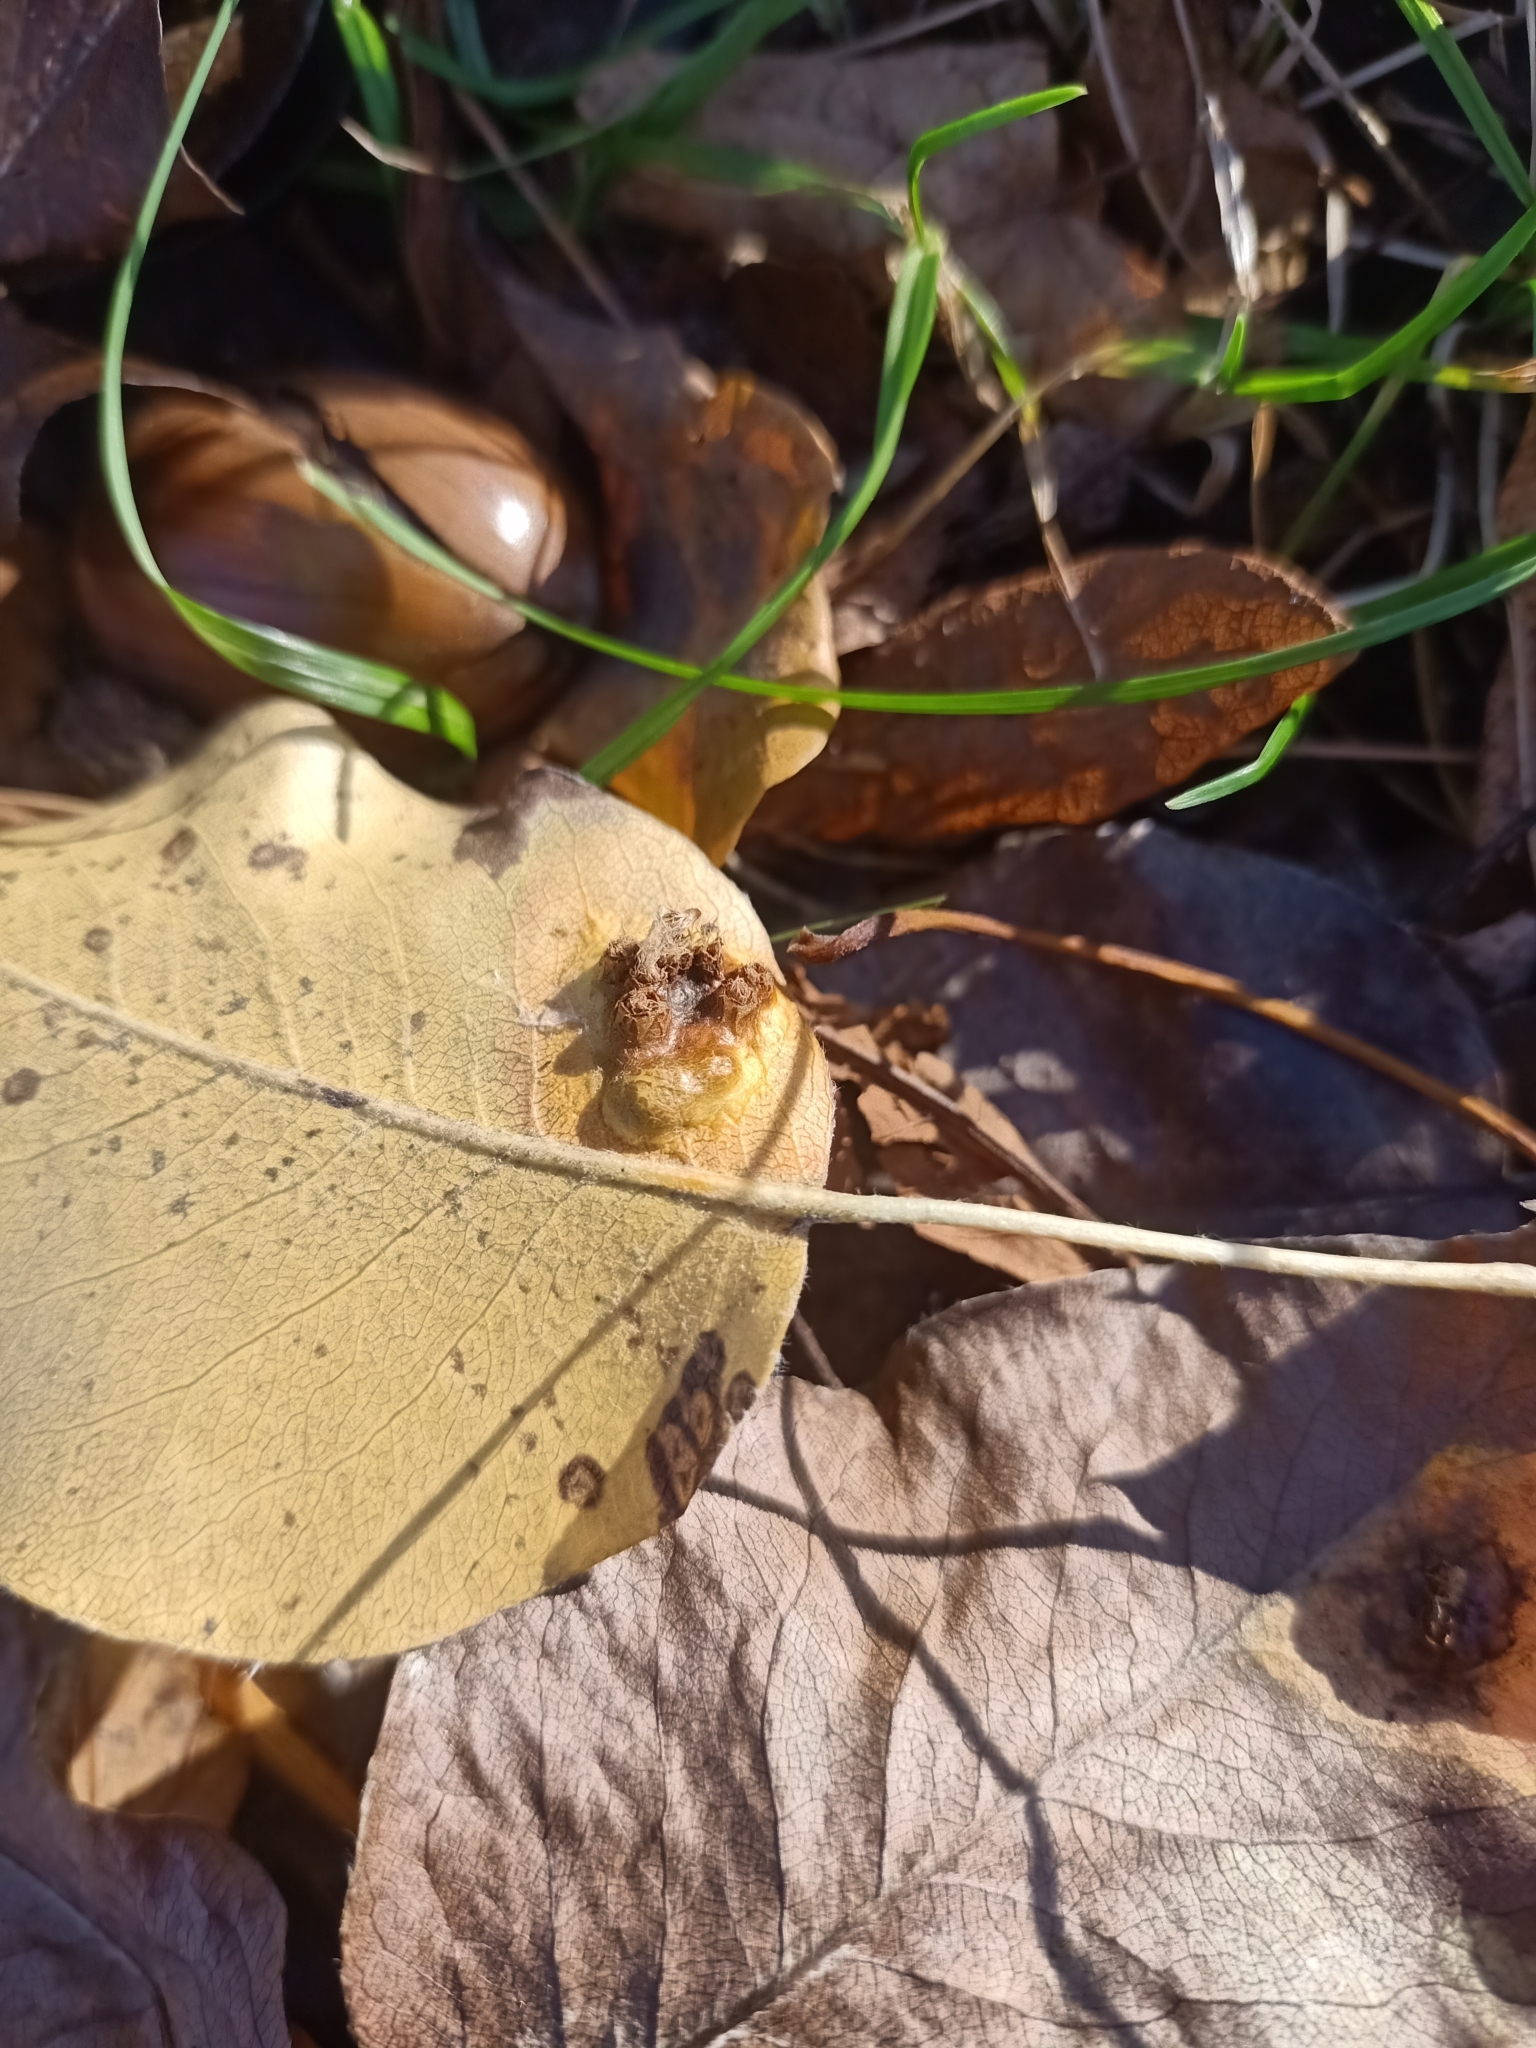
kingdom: Fungi
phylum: Basidiomycota
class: Pucciniomycetes
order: Pucciniales
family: Gymnosporangiaceae
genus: Gymnosporangium
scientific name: Gymnosporangium sabinae
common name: Pear trellis rust fungus
